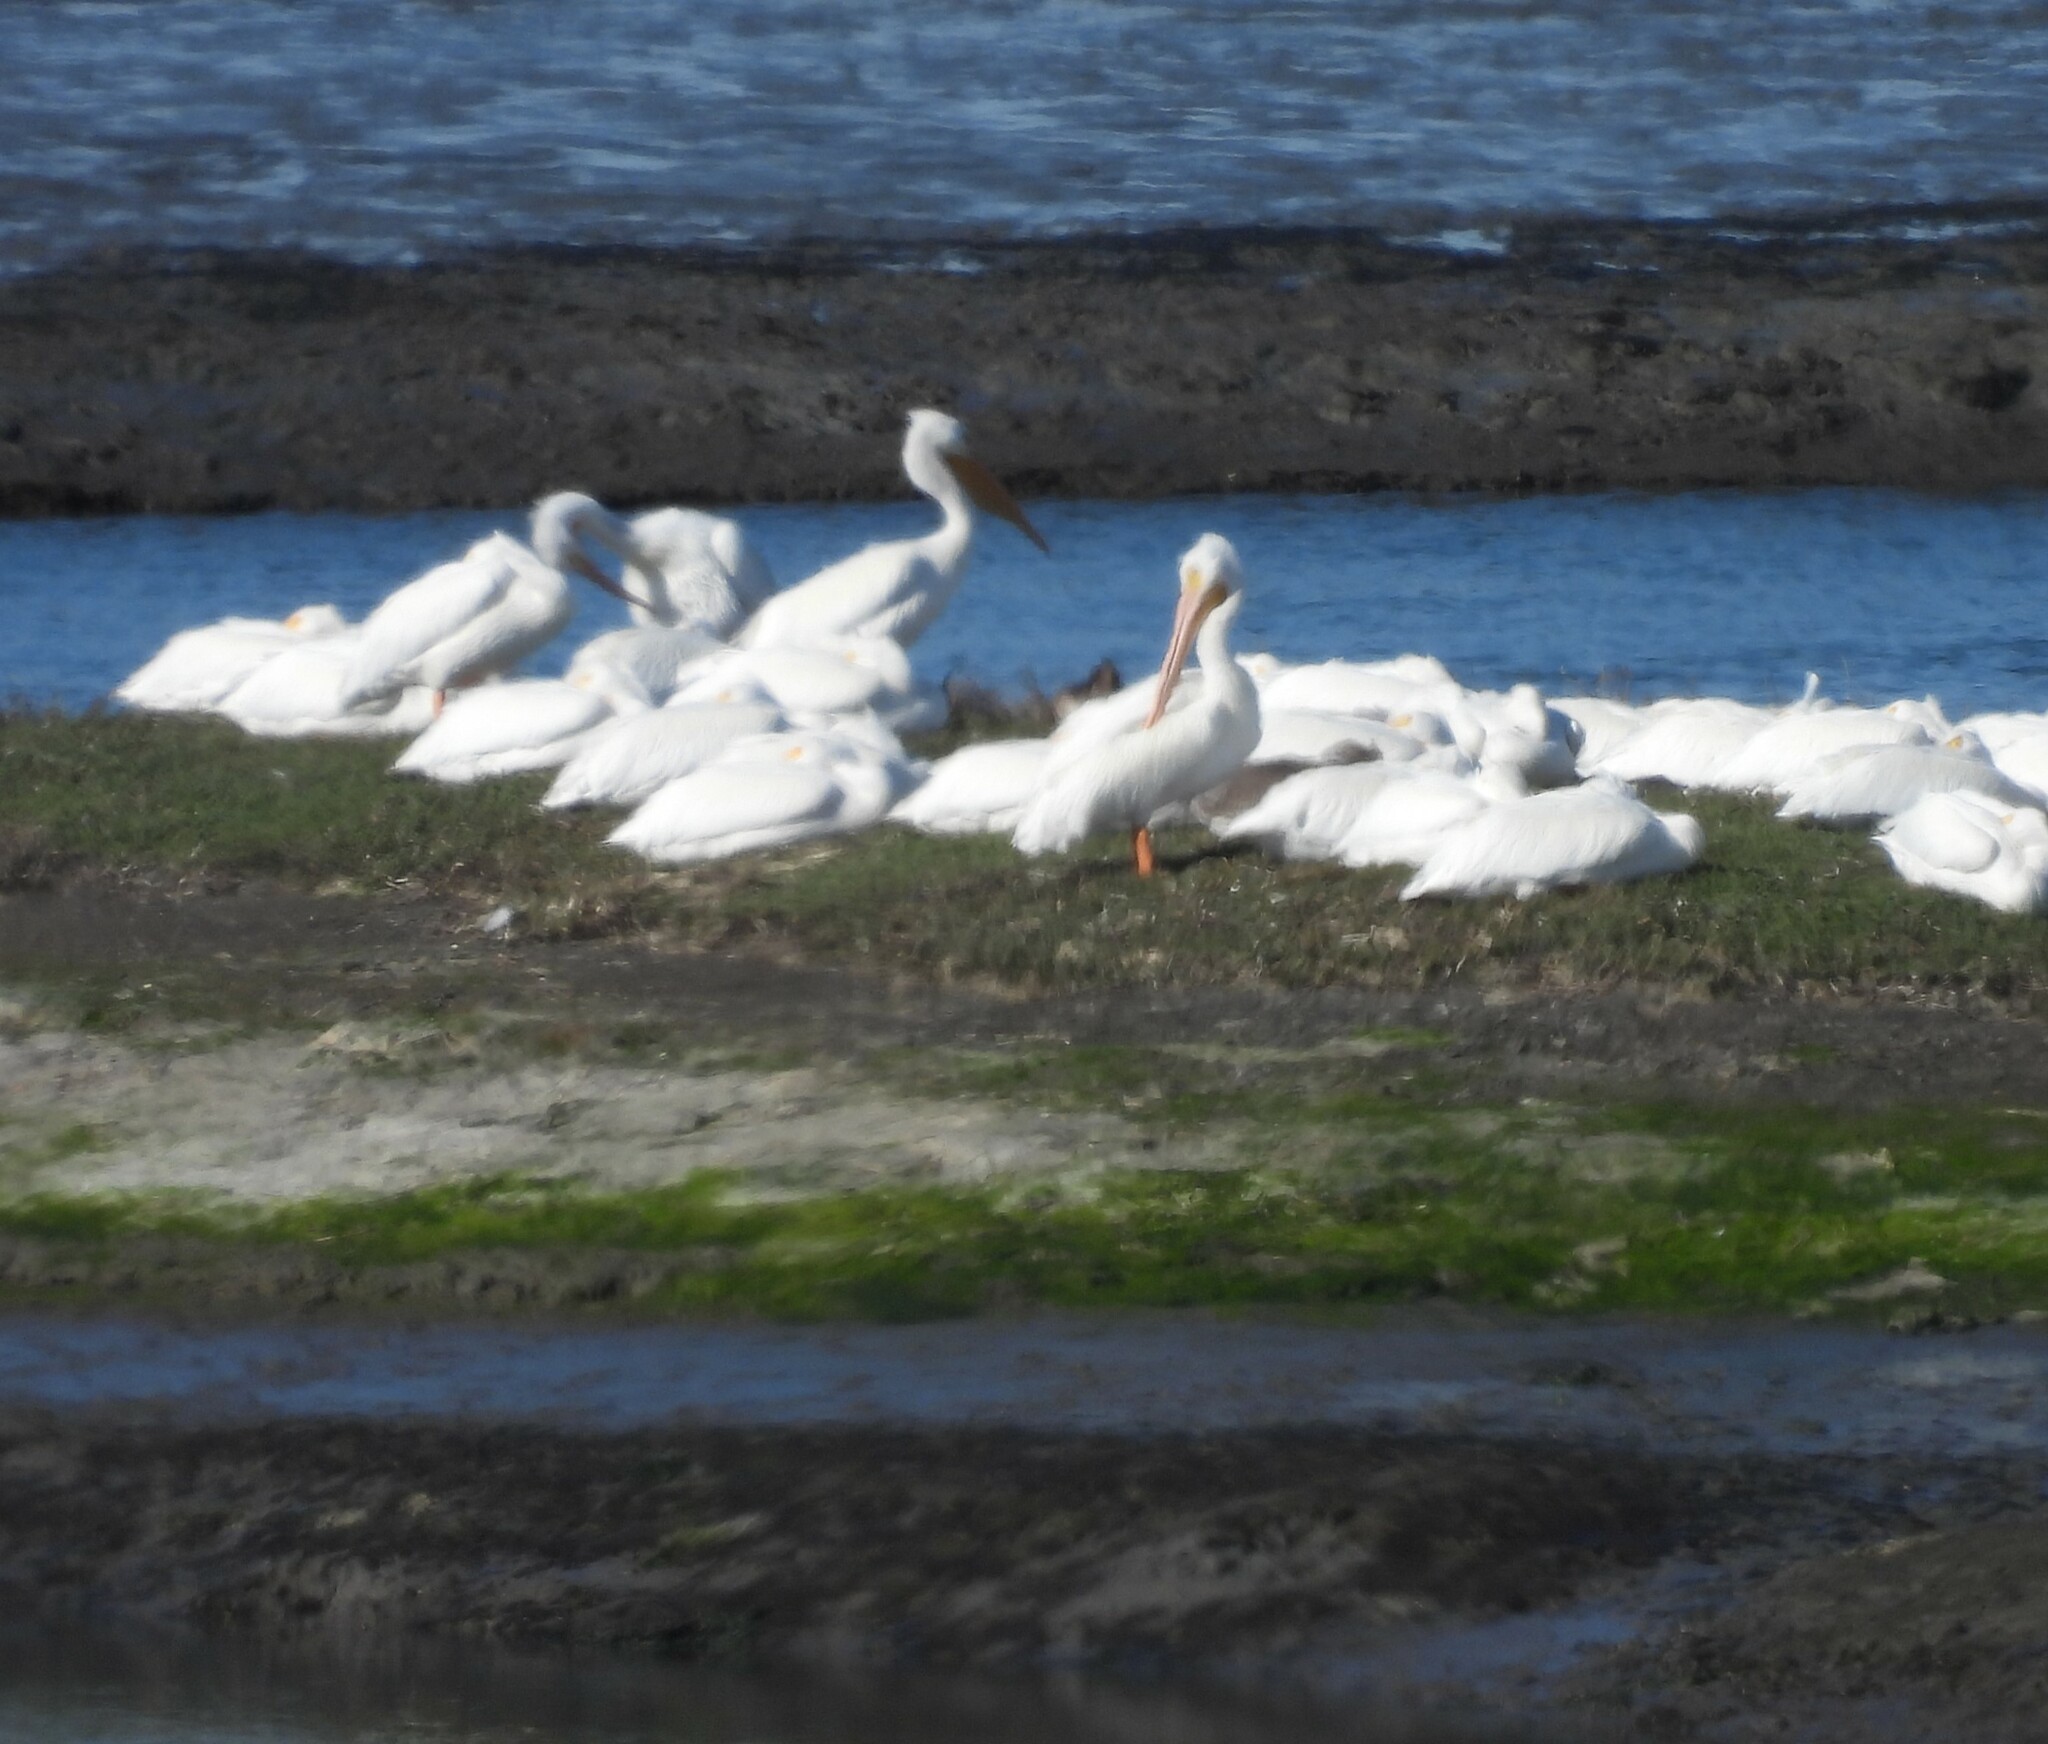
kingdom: Animalia
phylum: Chordata
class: Aves
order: Pelecaniformes
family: Pelecanidae
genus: Pelecanus
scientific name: Pelecanus erythrorhynchos
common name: American white pelican
